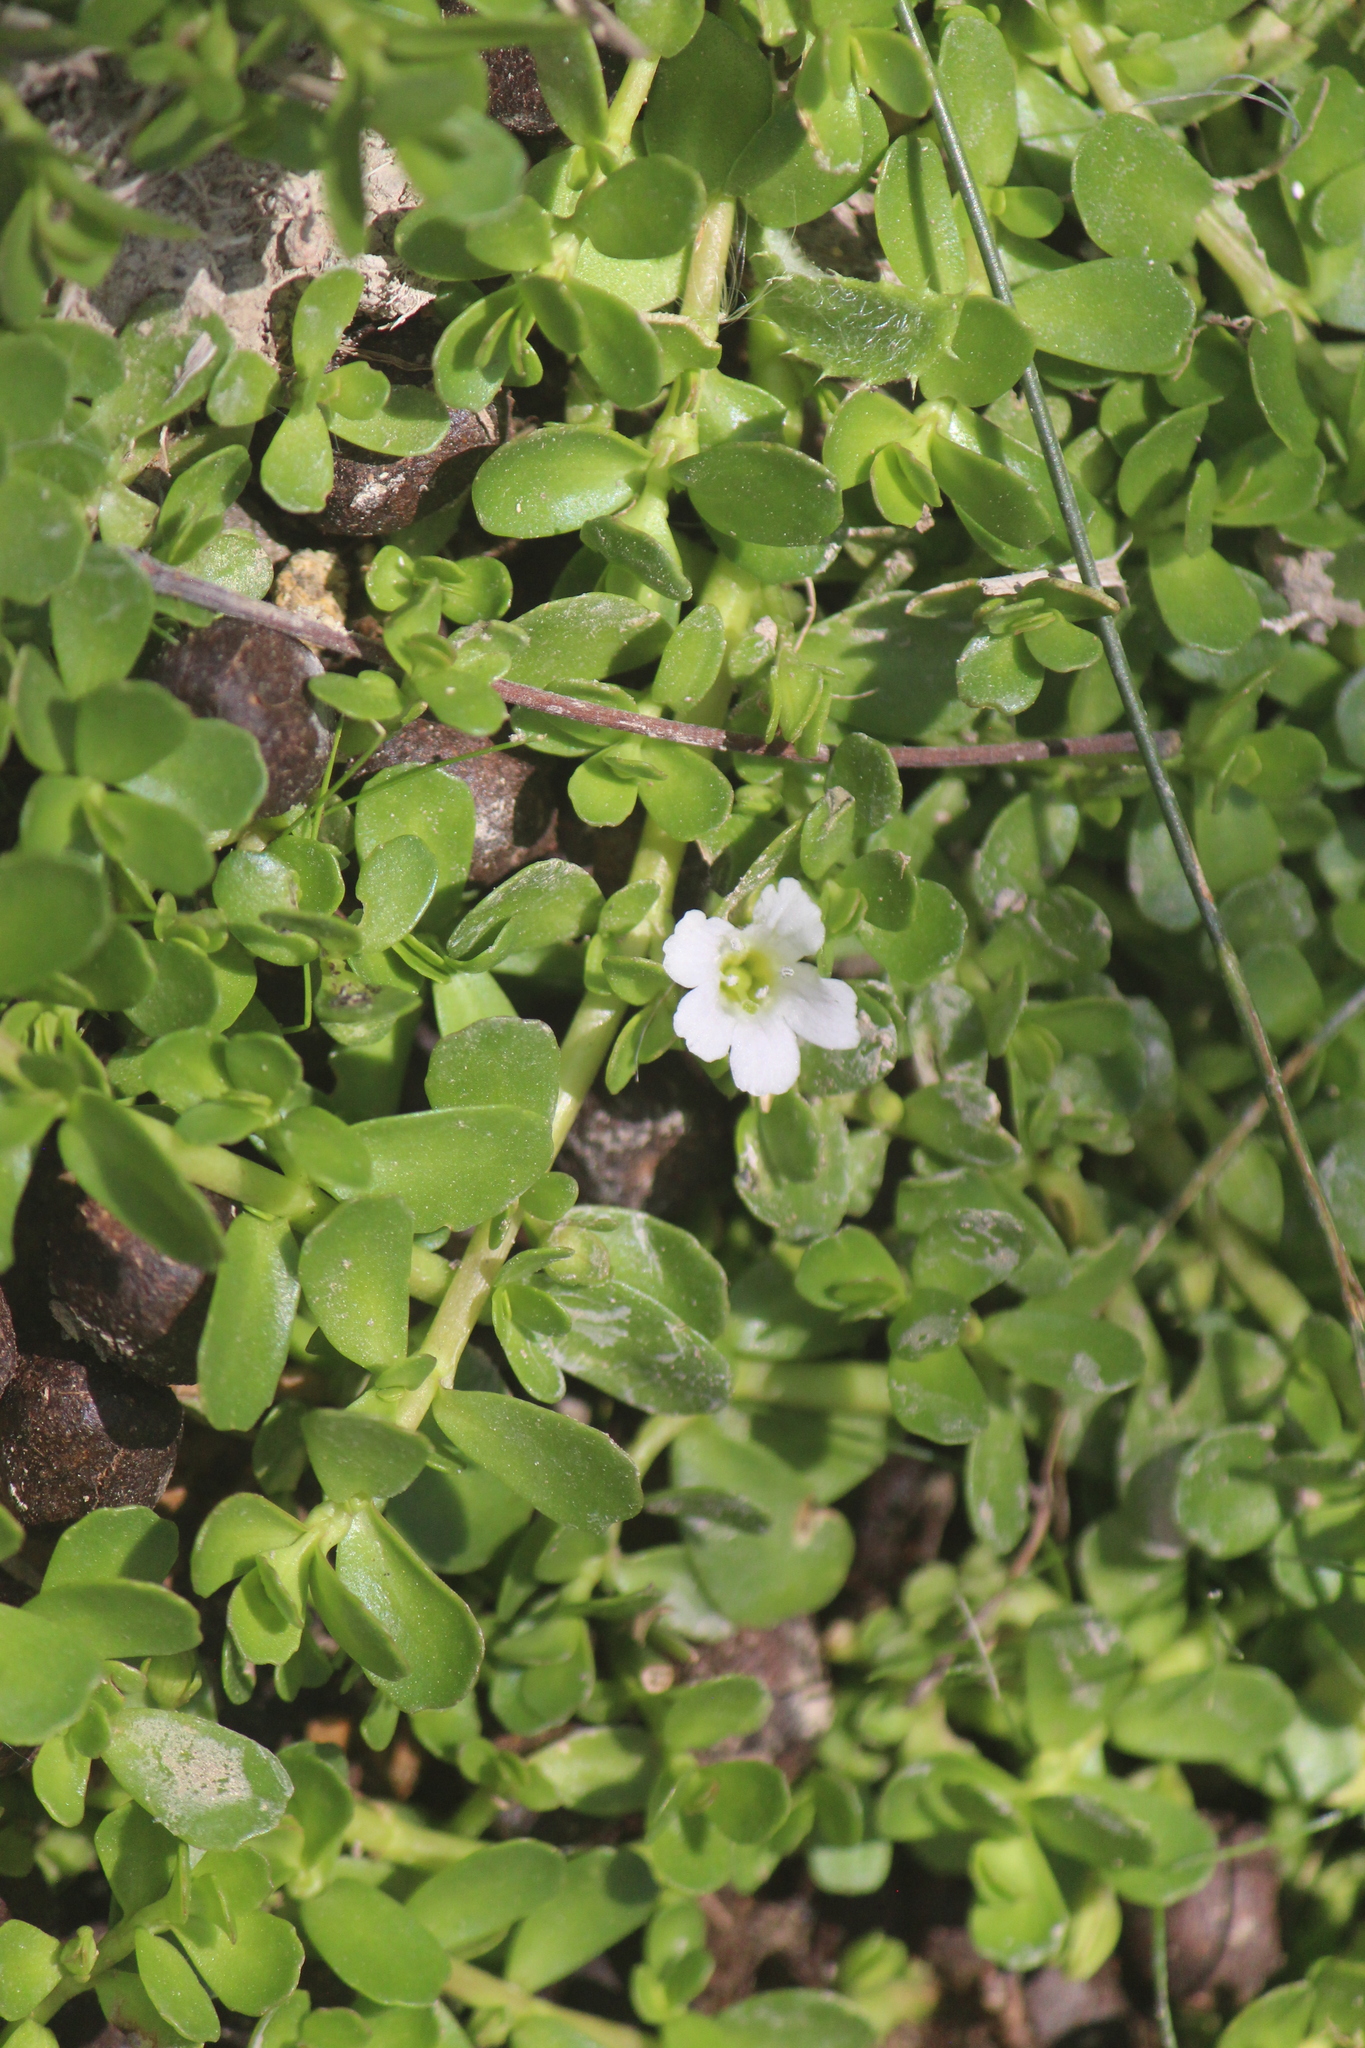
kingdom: Plantae
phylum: Tracheophyta
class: Magnoliopsida
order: Lamiales
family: Plantaginaceae
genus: Bacopa
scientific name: Bacopa monnieri
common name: Indian-pennywort
